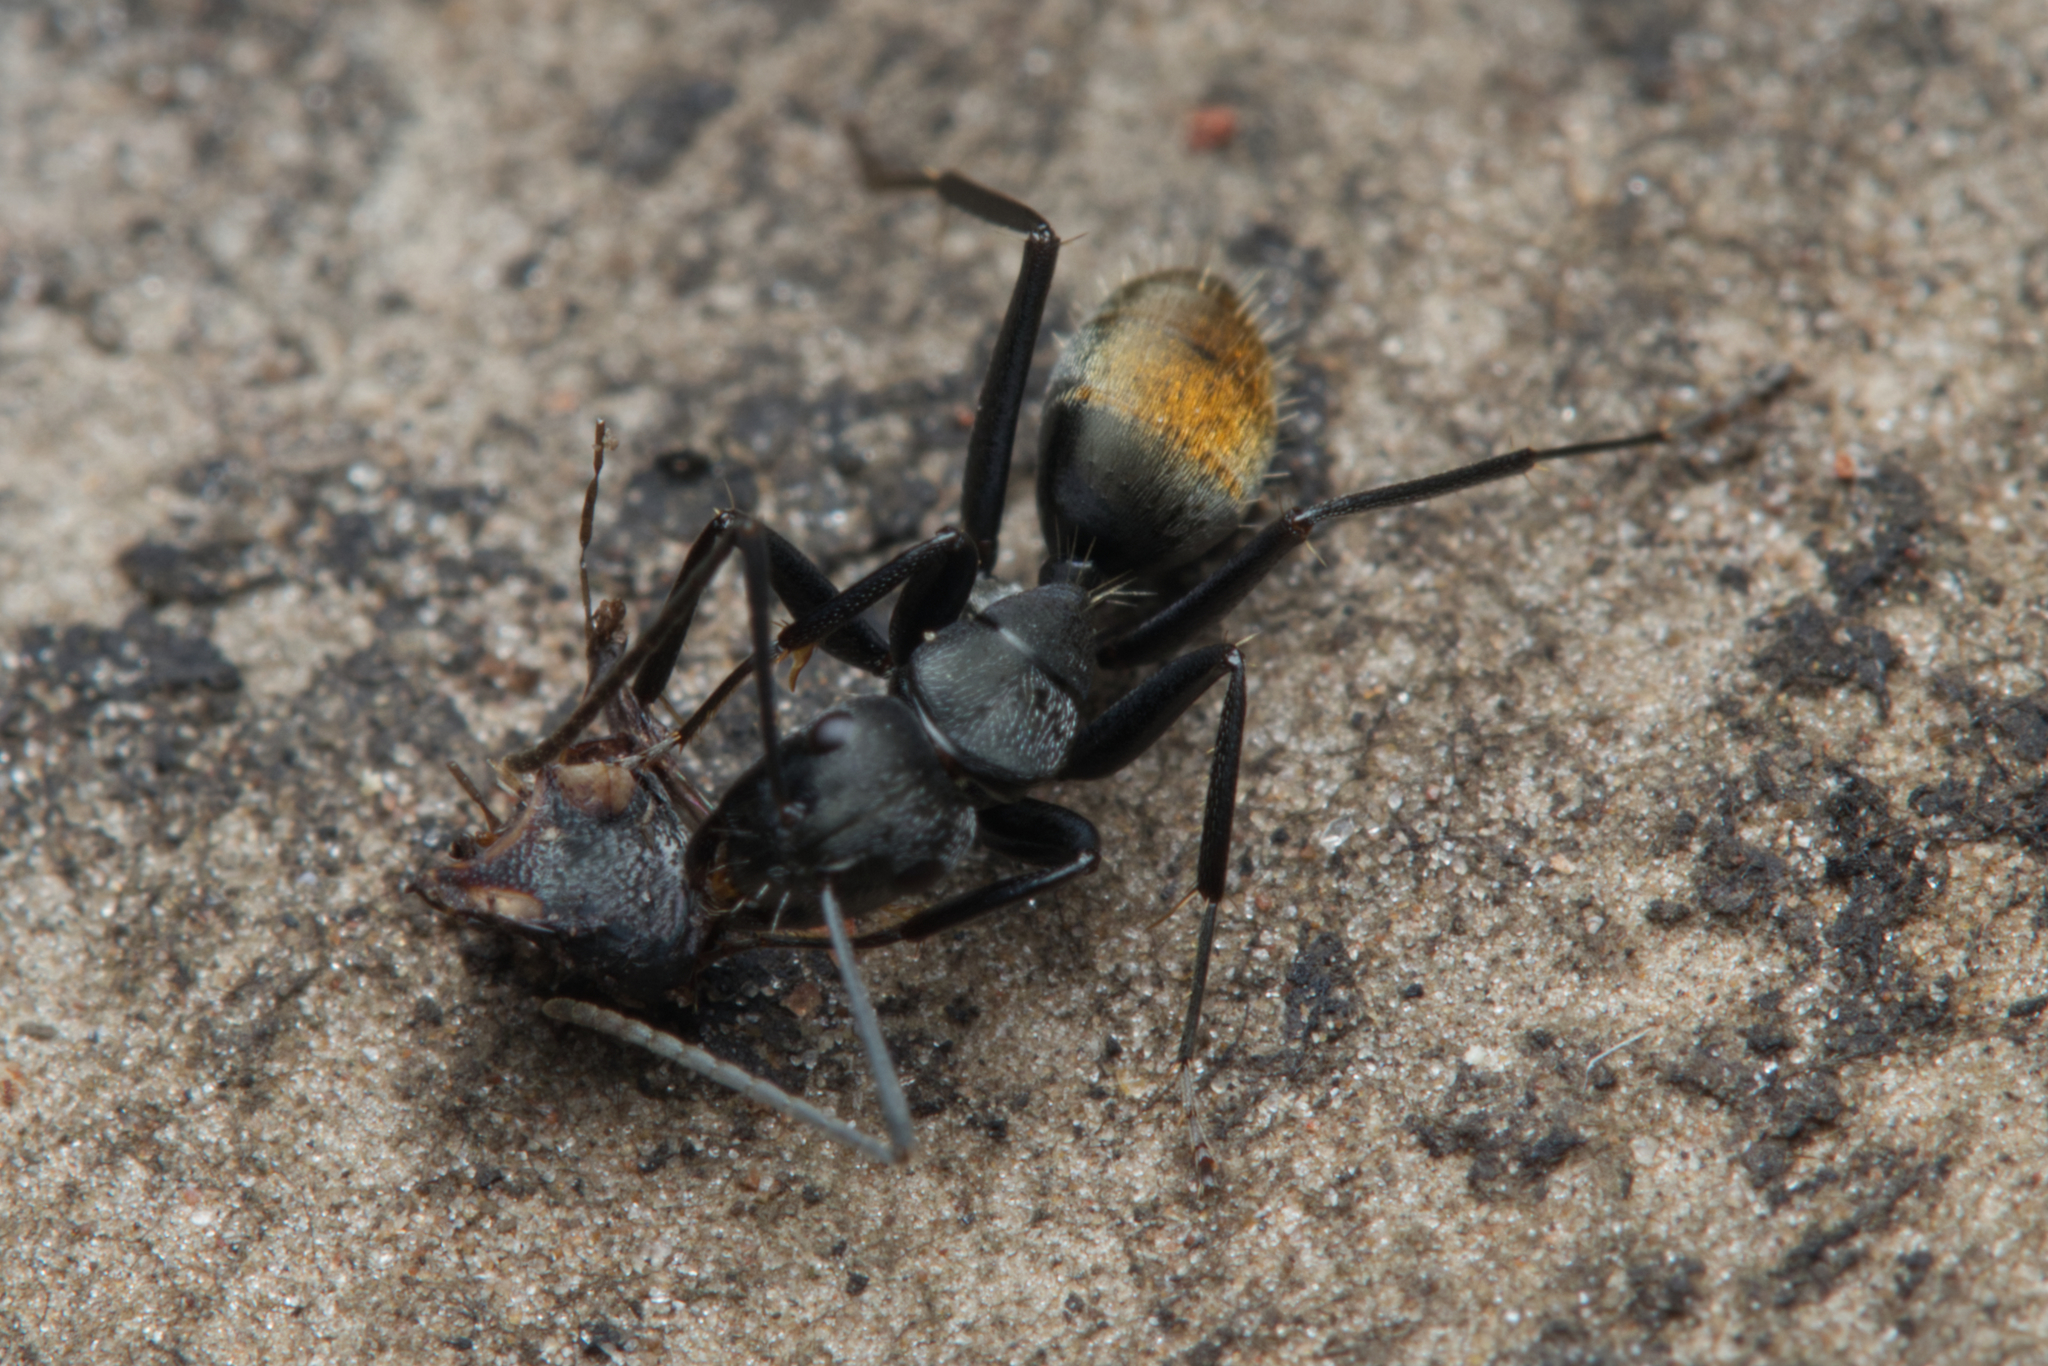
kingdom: Animalia
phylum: Arthropoda
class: Insecta
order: Hymenoptera
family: Formicidae
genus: Camponotus
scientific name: Camponotus aeneopilosus
